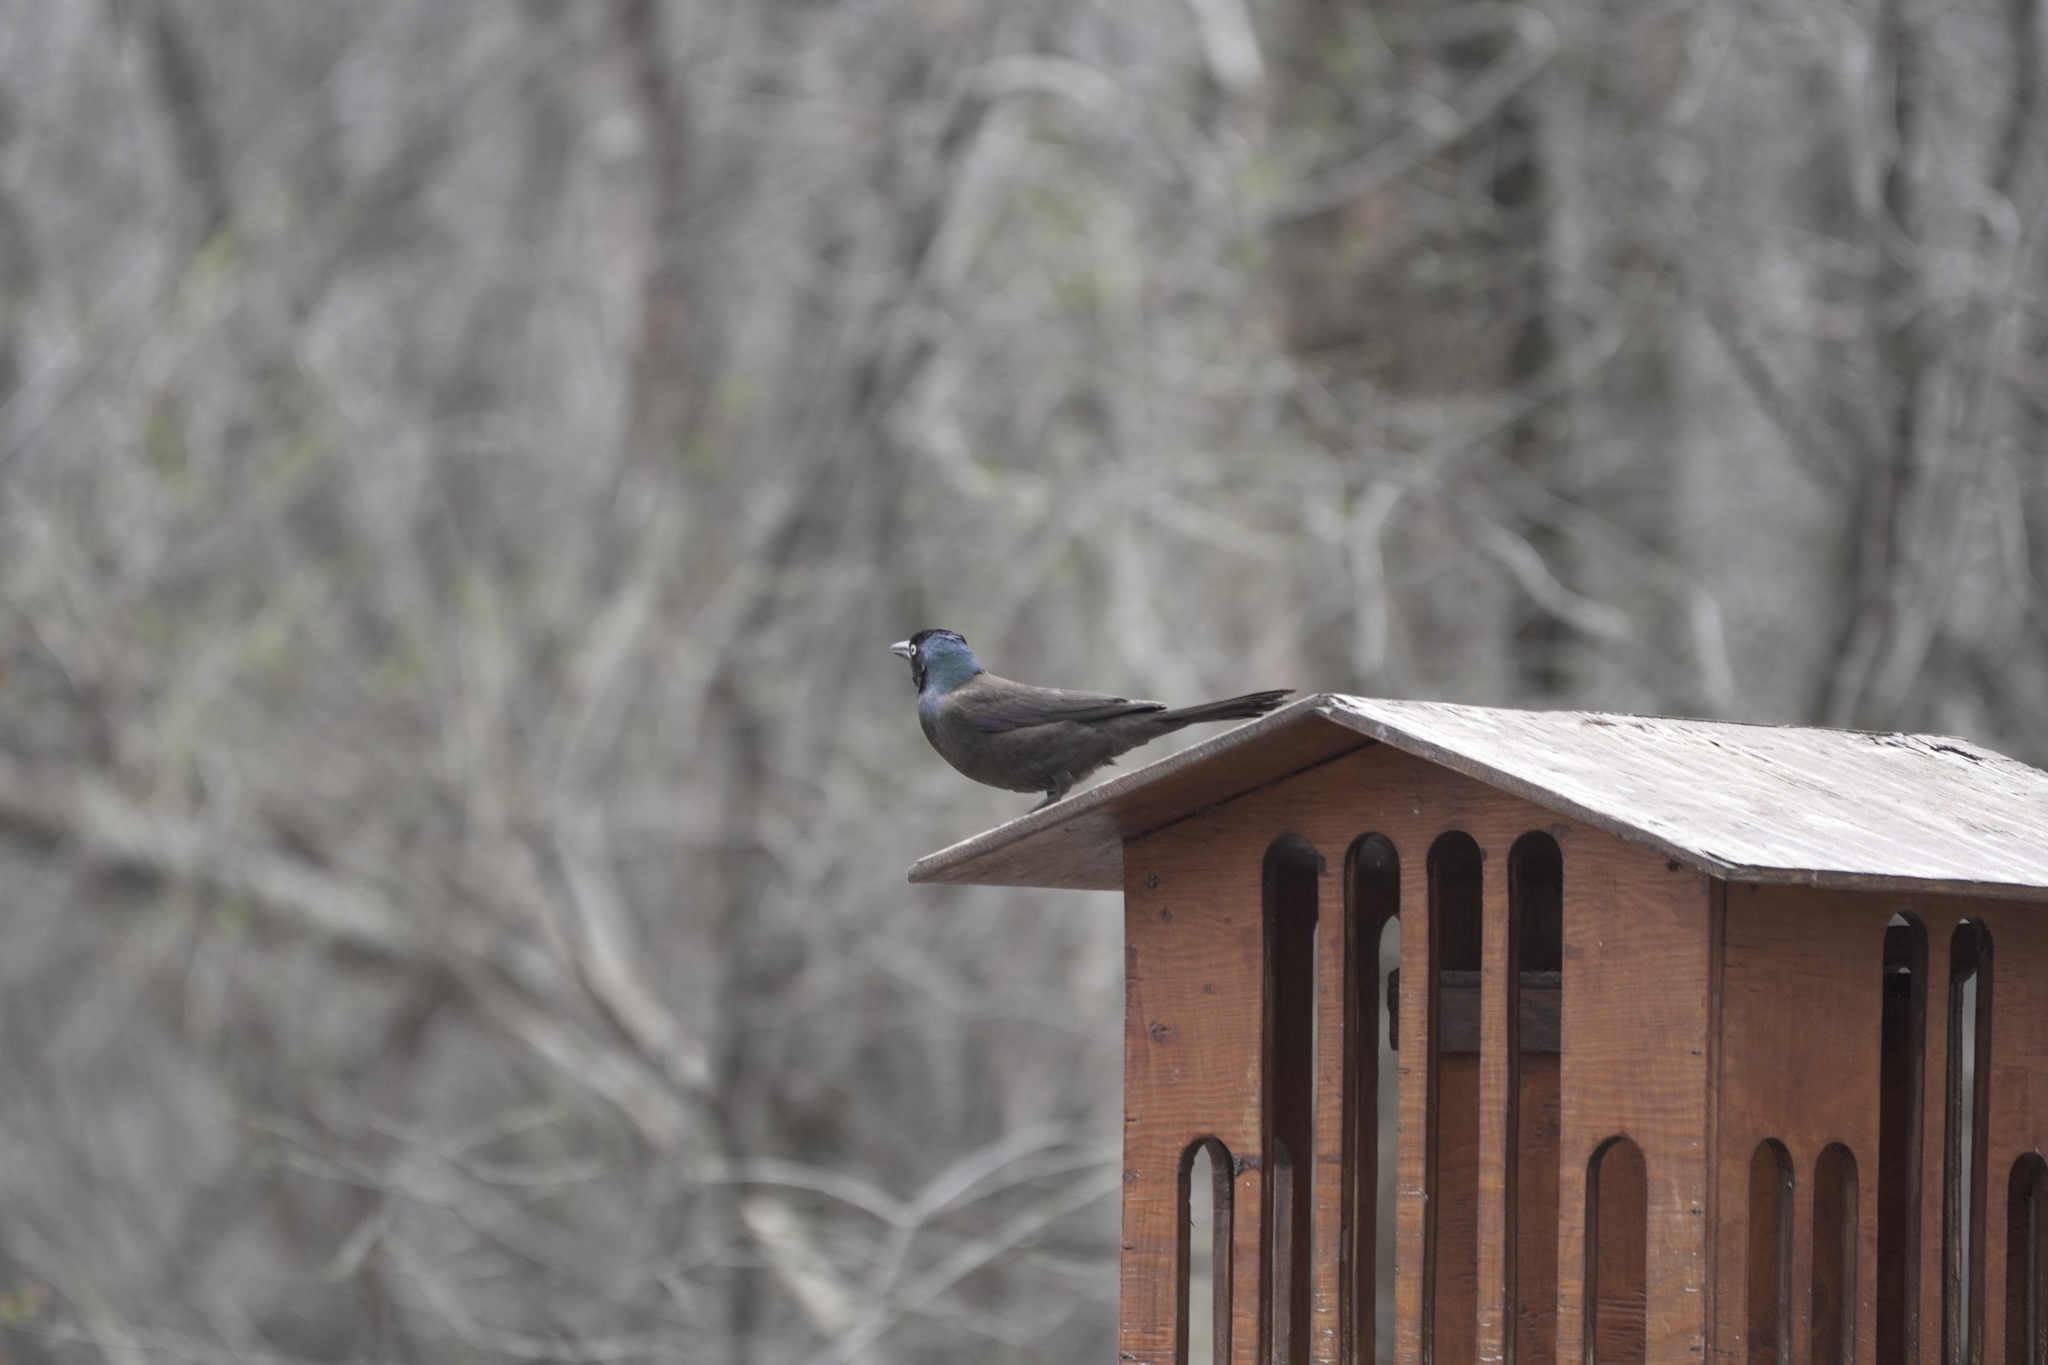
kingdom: Animalia
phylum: Chordata
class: Aves
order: Passeriformes
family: Icteridae
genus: Quiscalus
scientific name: Quiscalus quiscula
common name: Common grackle
